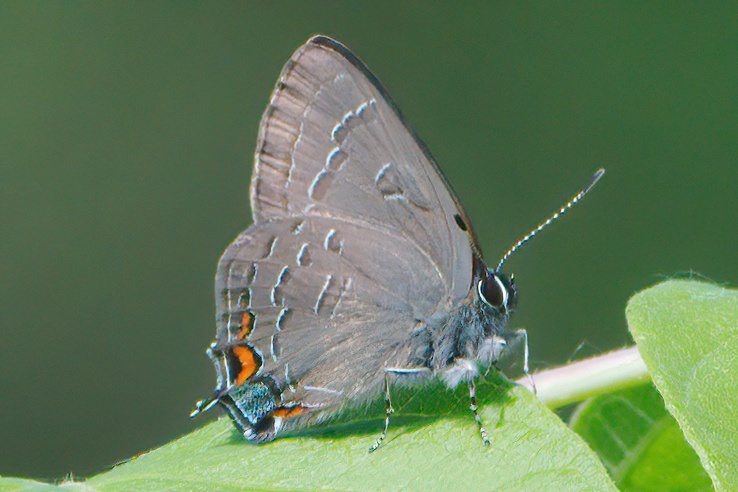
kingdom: Animalia
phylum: Arthropoda
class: Insecta
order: Lepidoptera
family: Lycaenidae
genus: Satyrium
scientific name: Satyrium calanus
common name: Banded hairstreak
